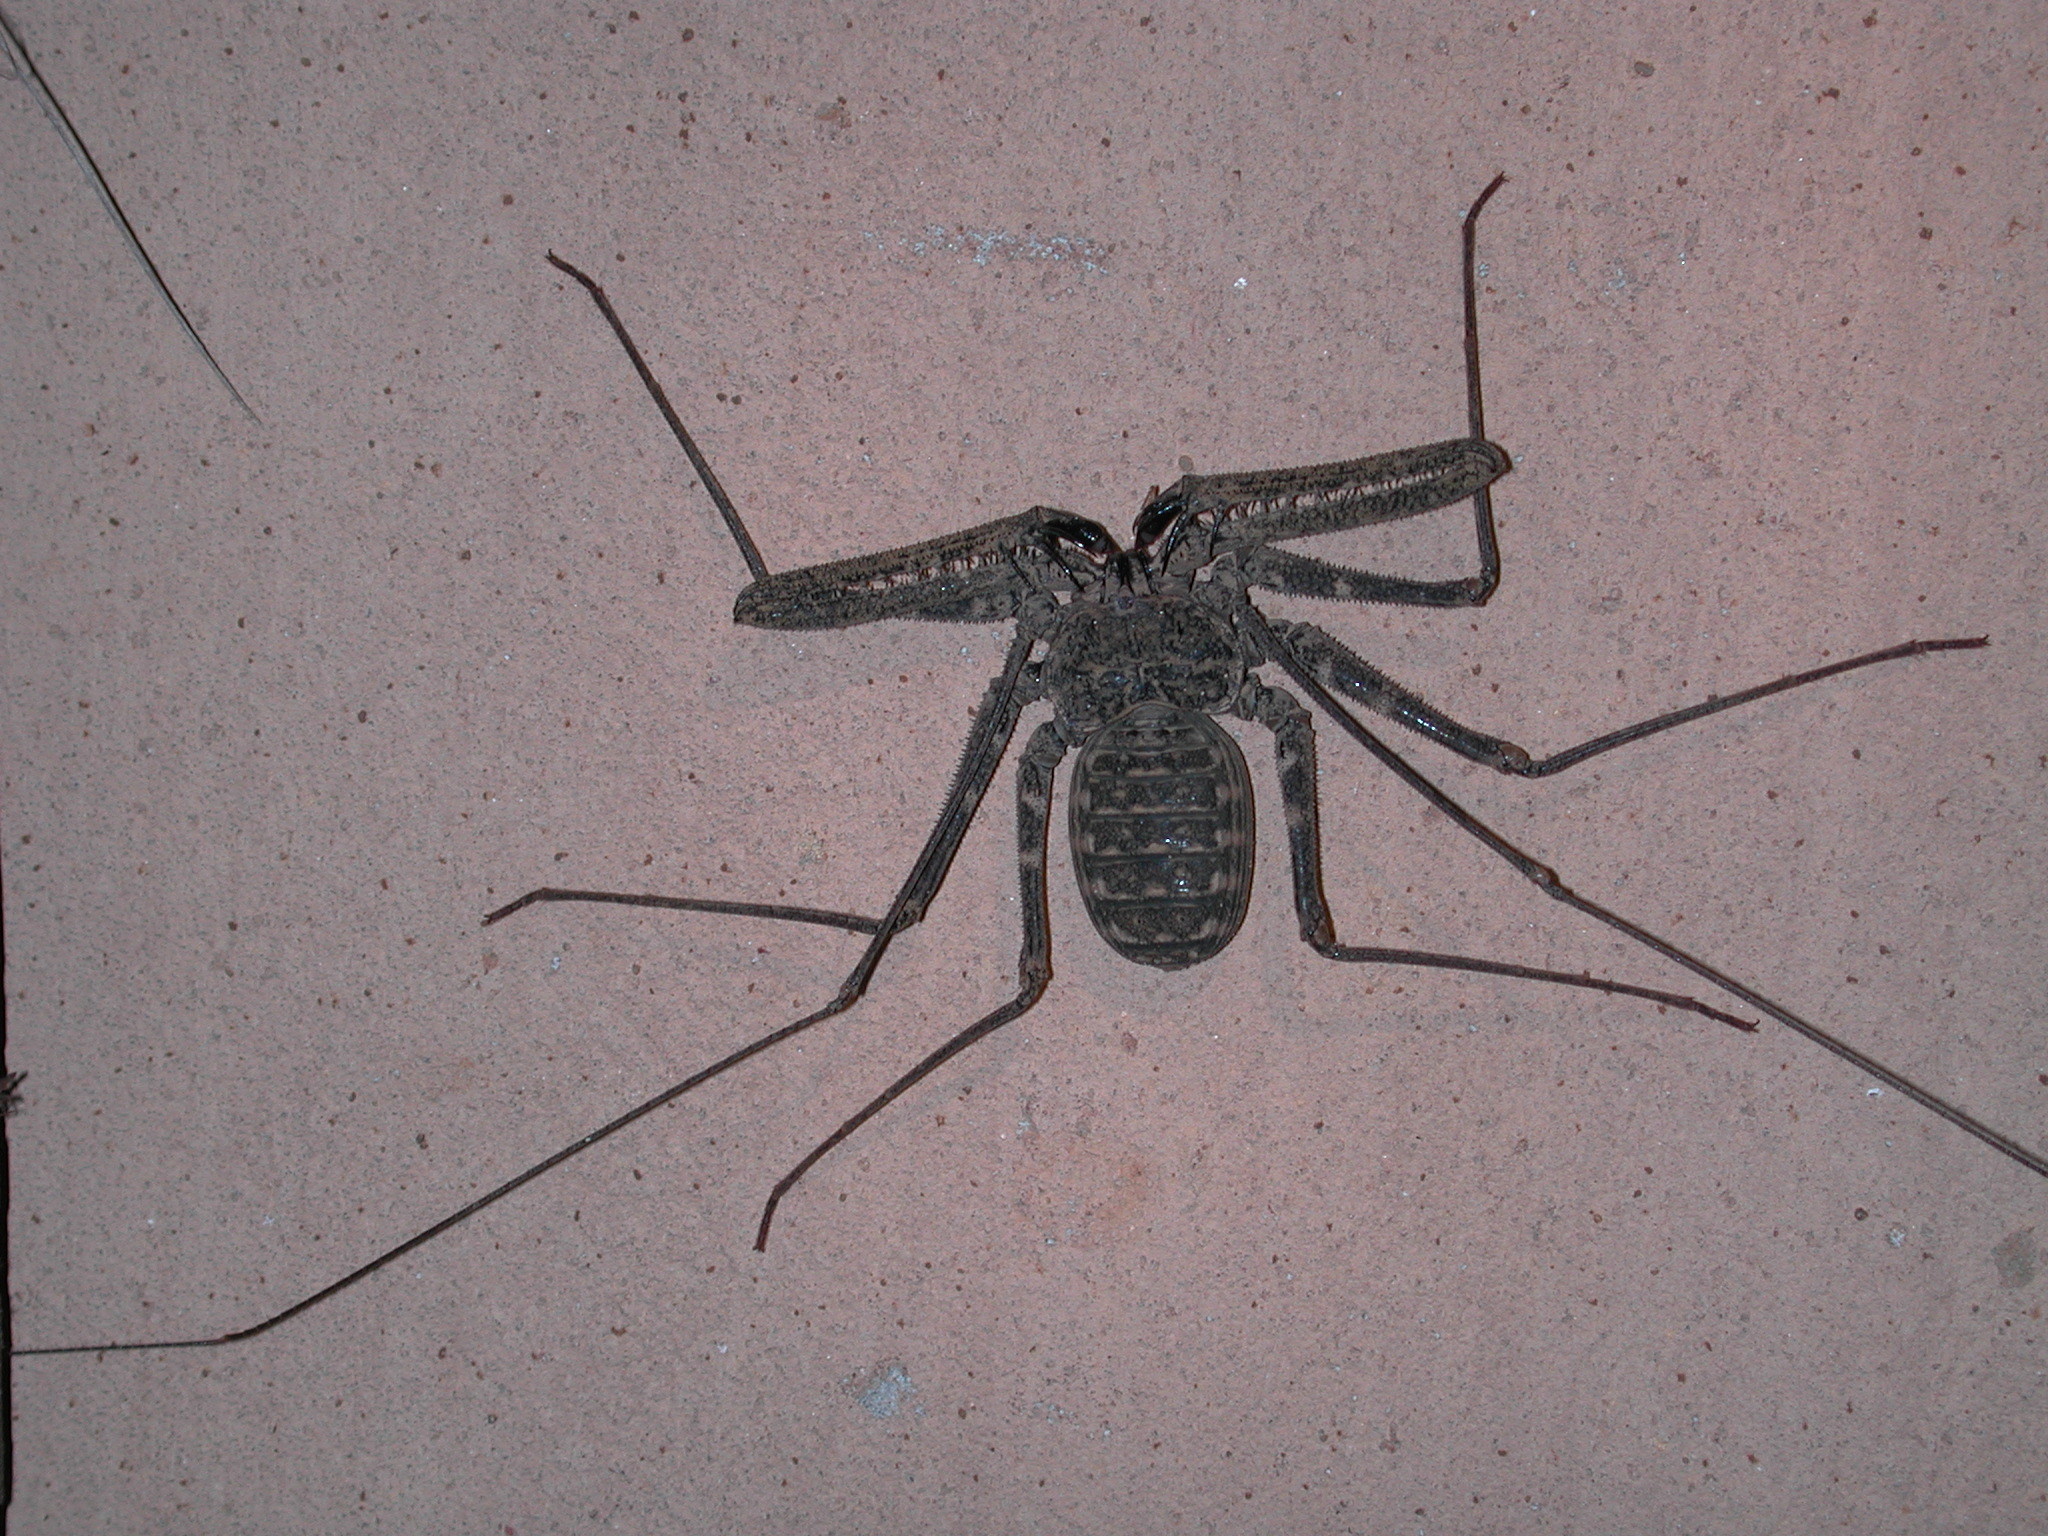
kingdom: Animalia
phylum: Arthropoda
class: Arachnida
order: Amblypygi
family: Phrynichidae
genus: Damon
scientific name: Damon johnstonii
